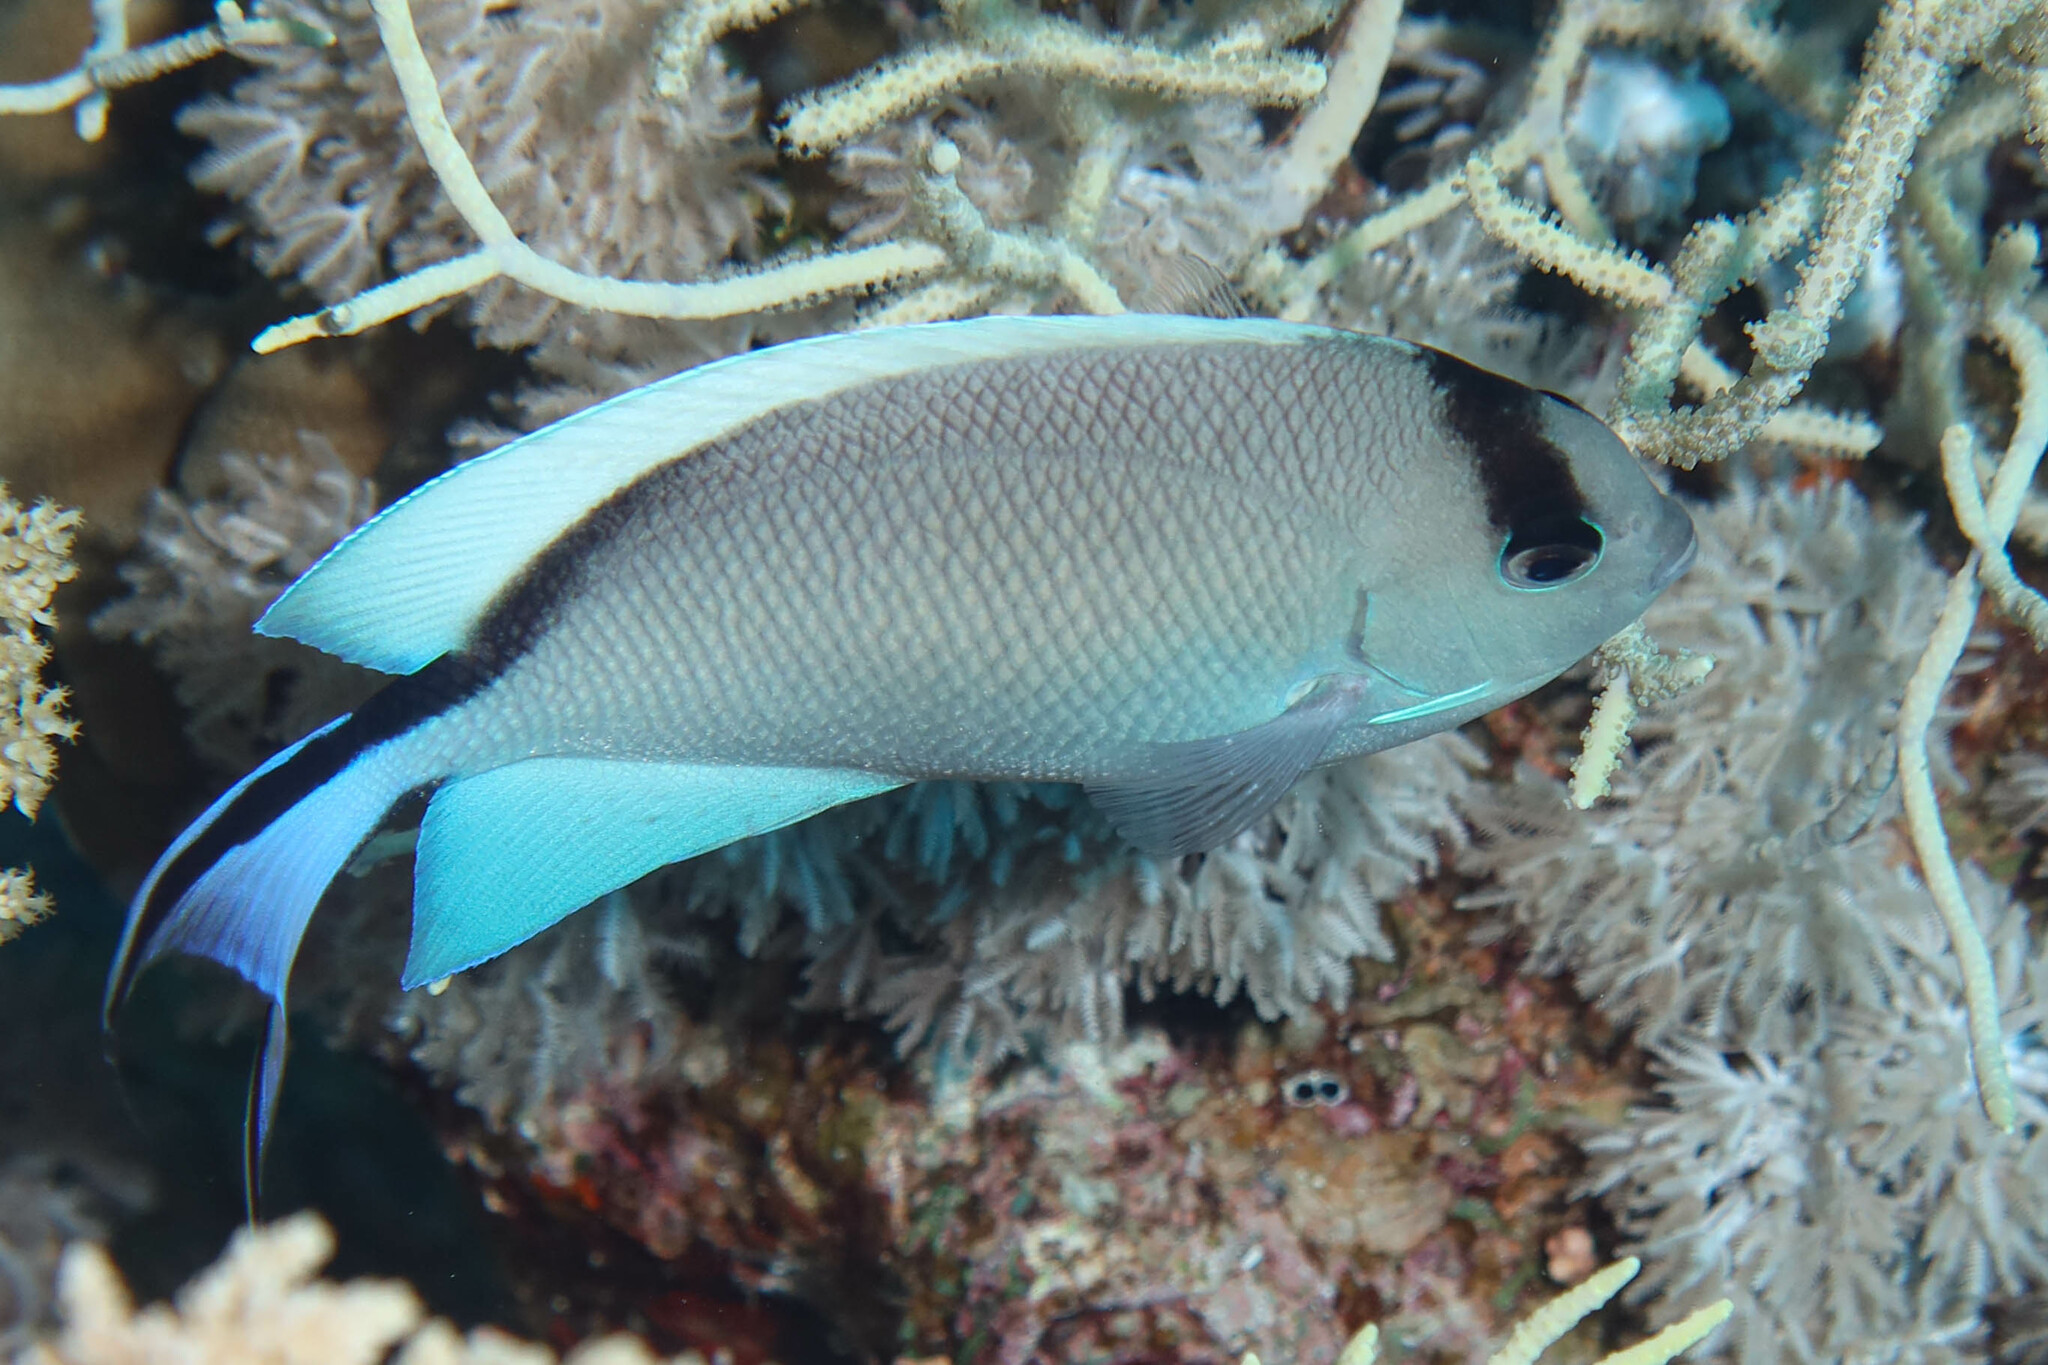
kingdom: Animalia
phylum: Chordata
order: Perciformes
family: Pomacanthidae
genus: Genicanthus
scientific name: Genicanthus caudovittatus
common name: Lyretail angelfish
